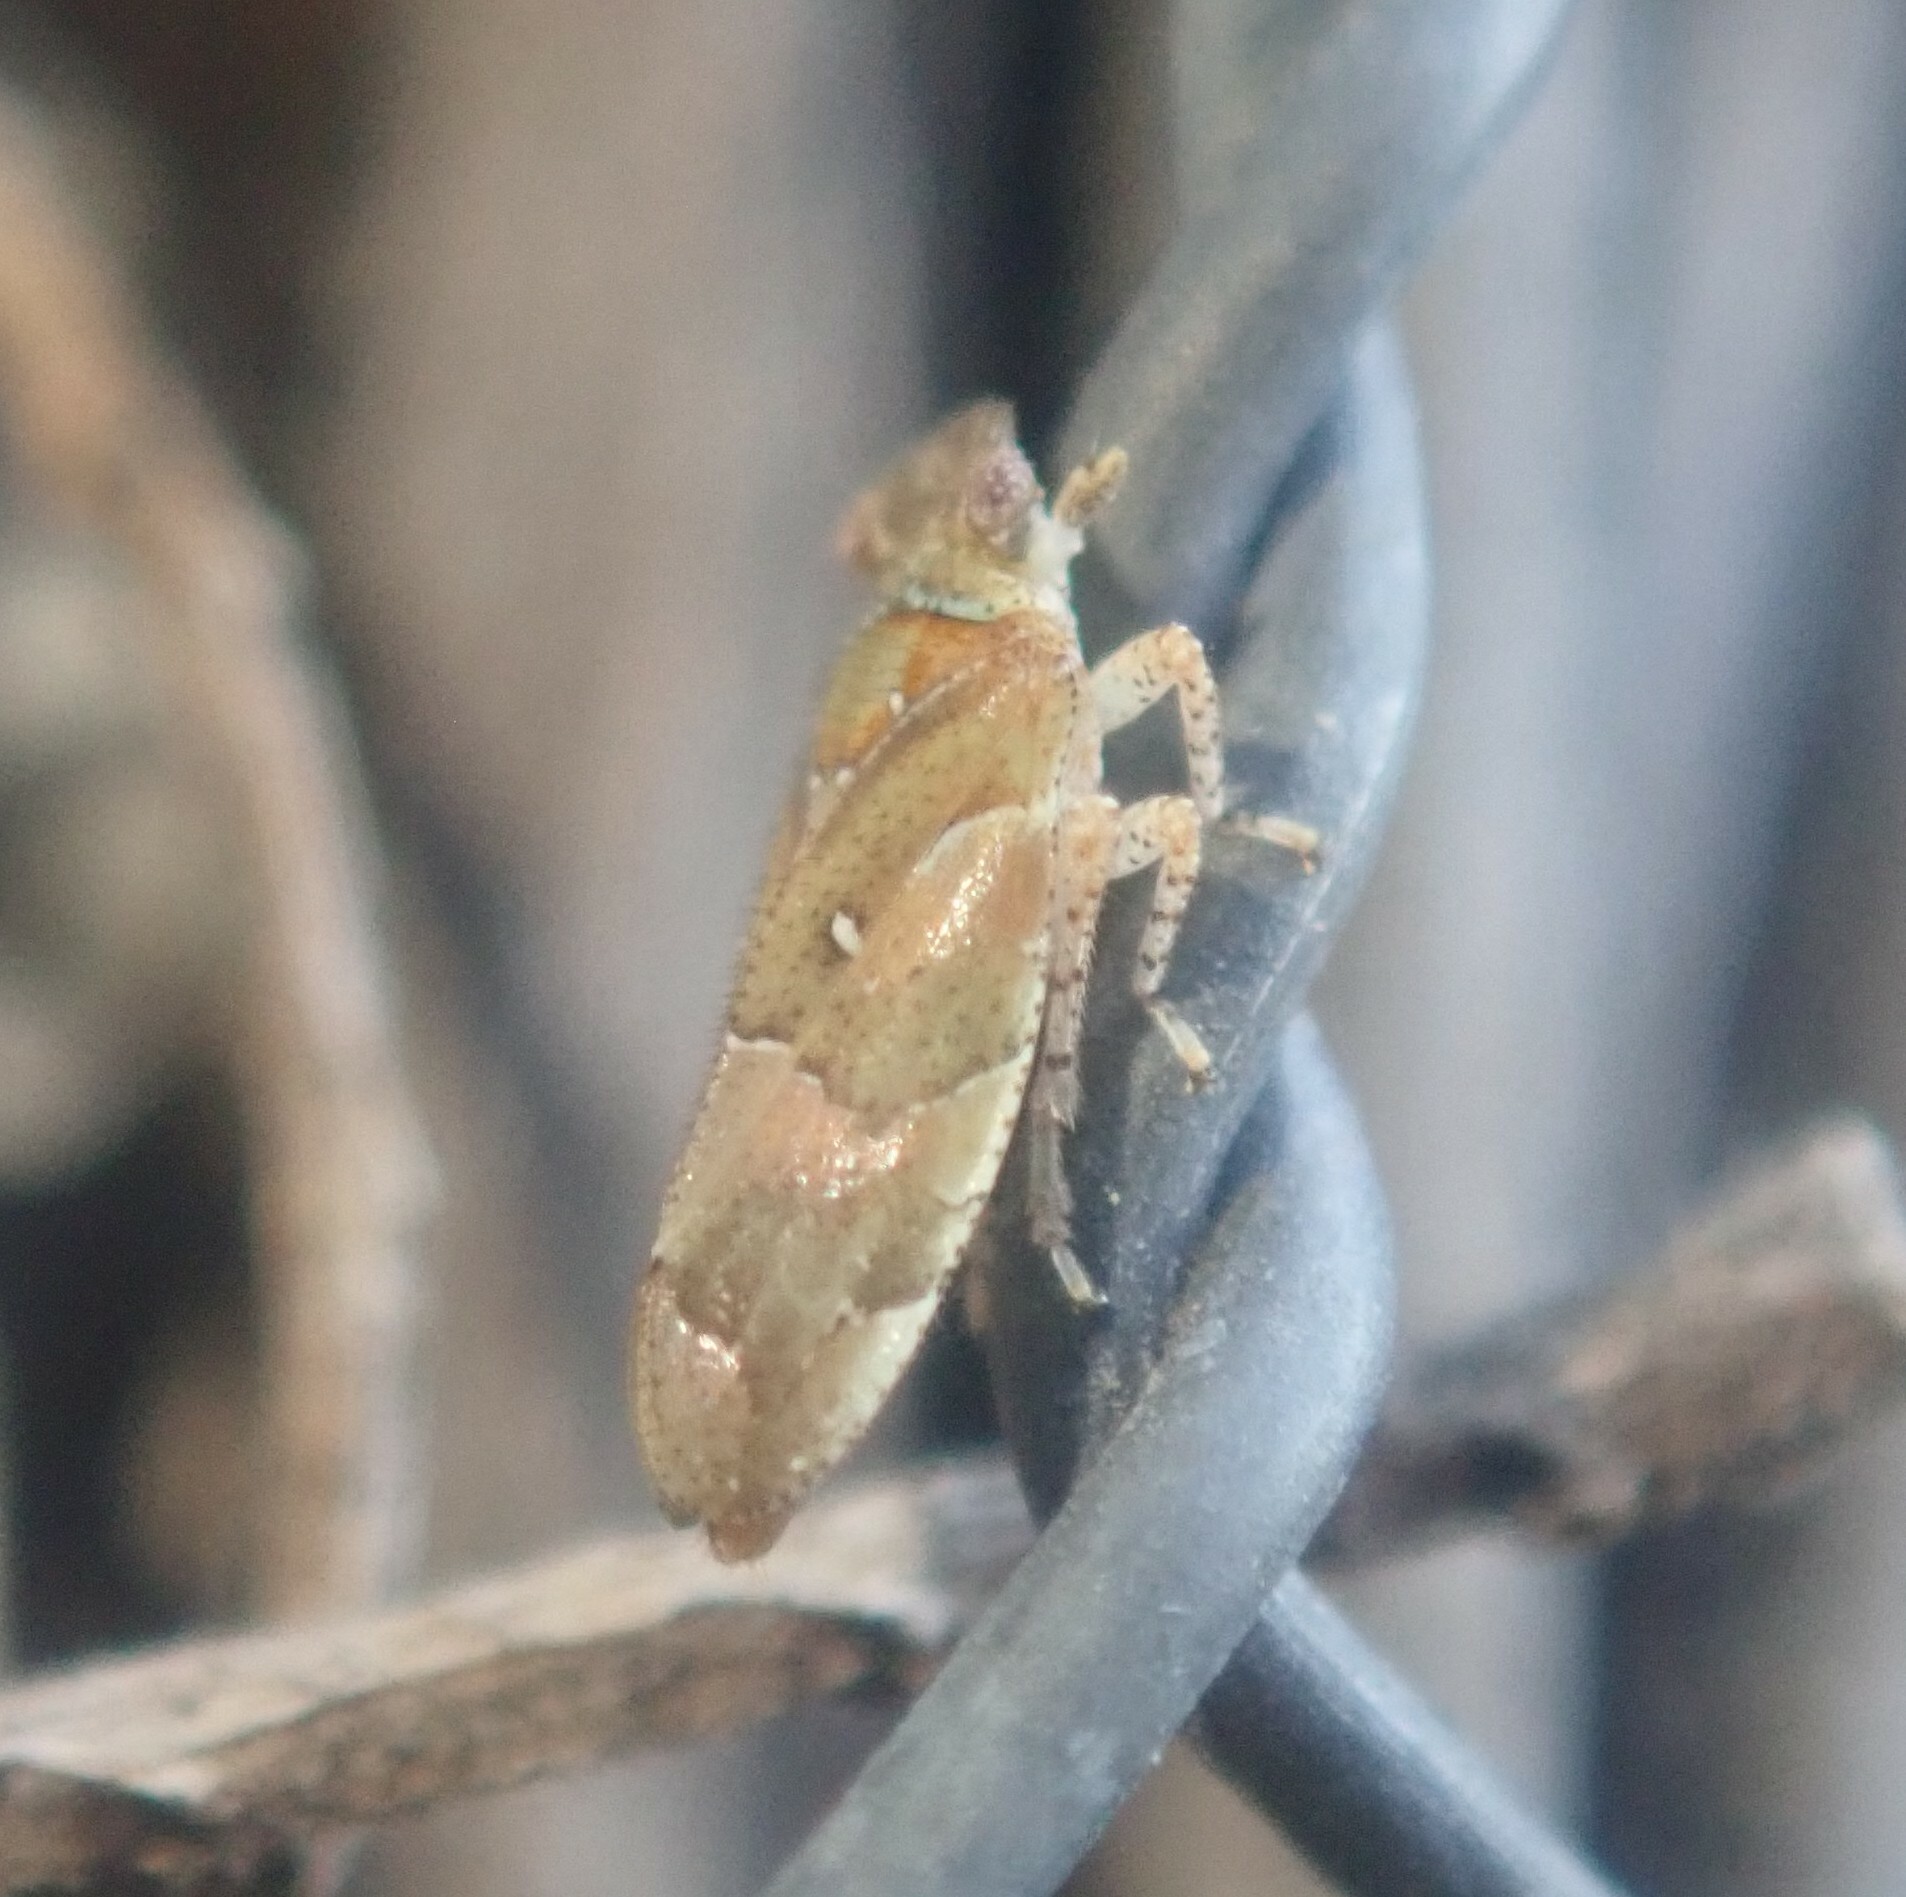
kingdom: Animalia
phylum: Arthropoda
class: Insecta
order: Hemiptera
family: Tettigometridae
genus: Nototettigometra
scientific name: Nototettigometra patruelis
